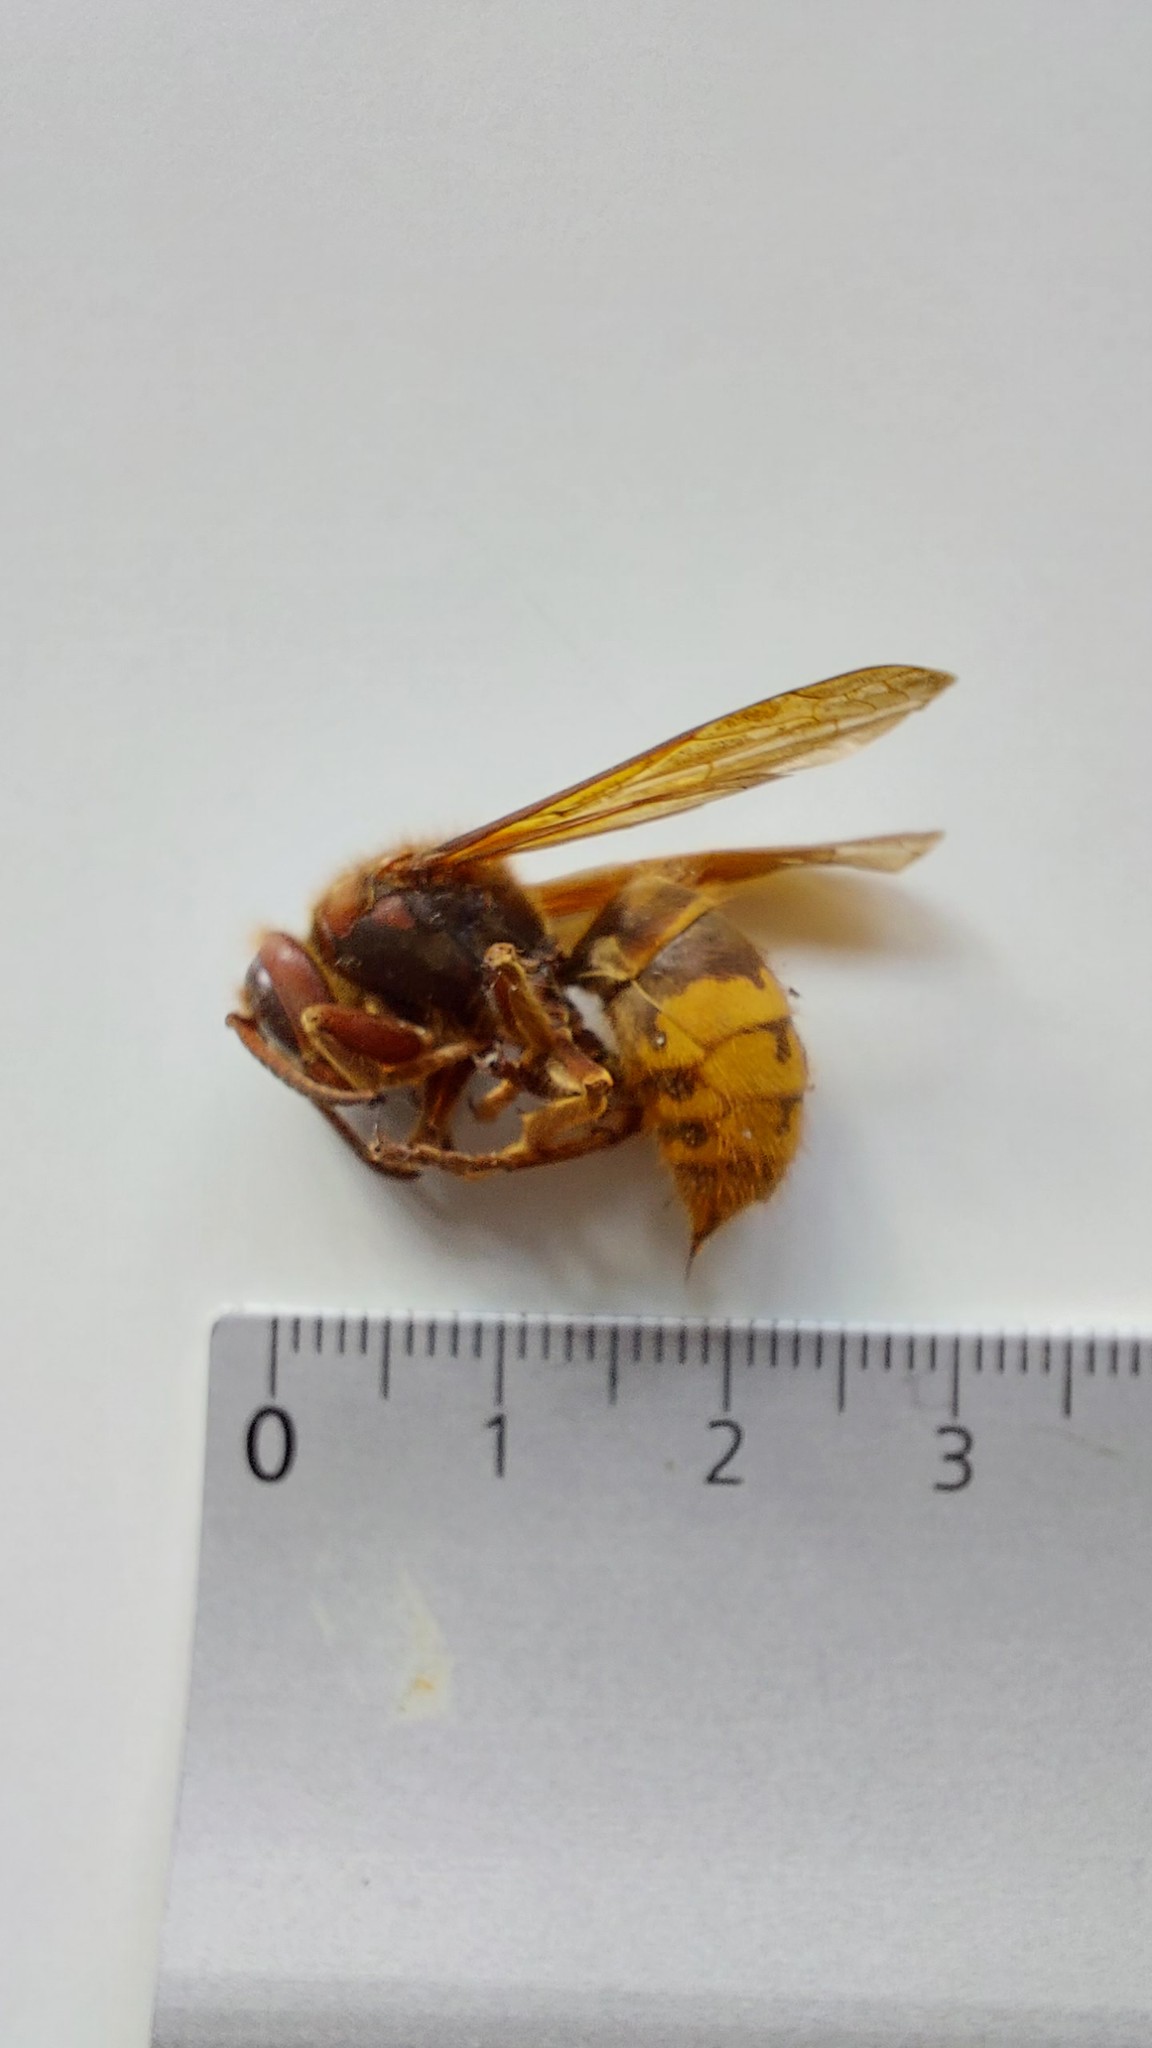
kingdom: Animalia
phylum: Arthropoda
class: Insecta
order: Hymenoptera
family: Vespidae
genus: Vespa
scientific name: Vespa crabro
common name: Hornet
